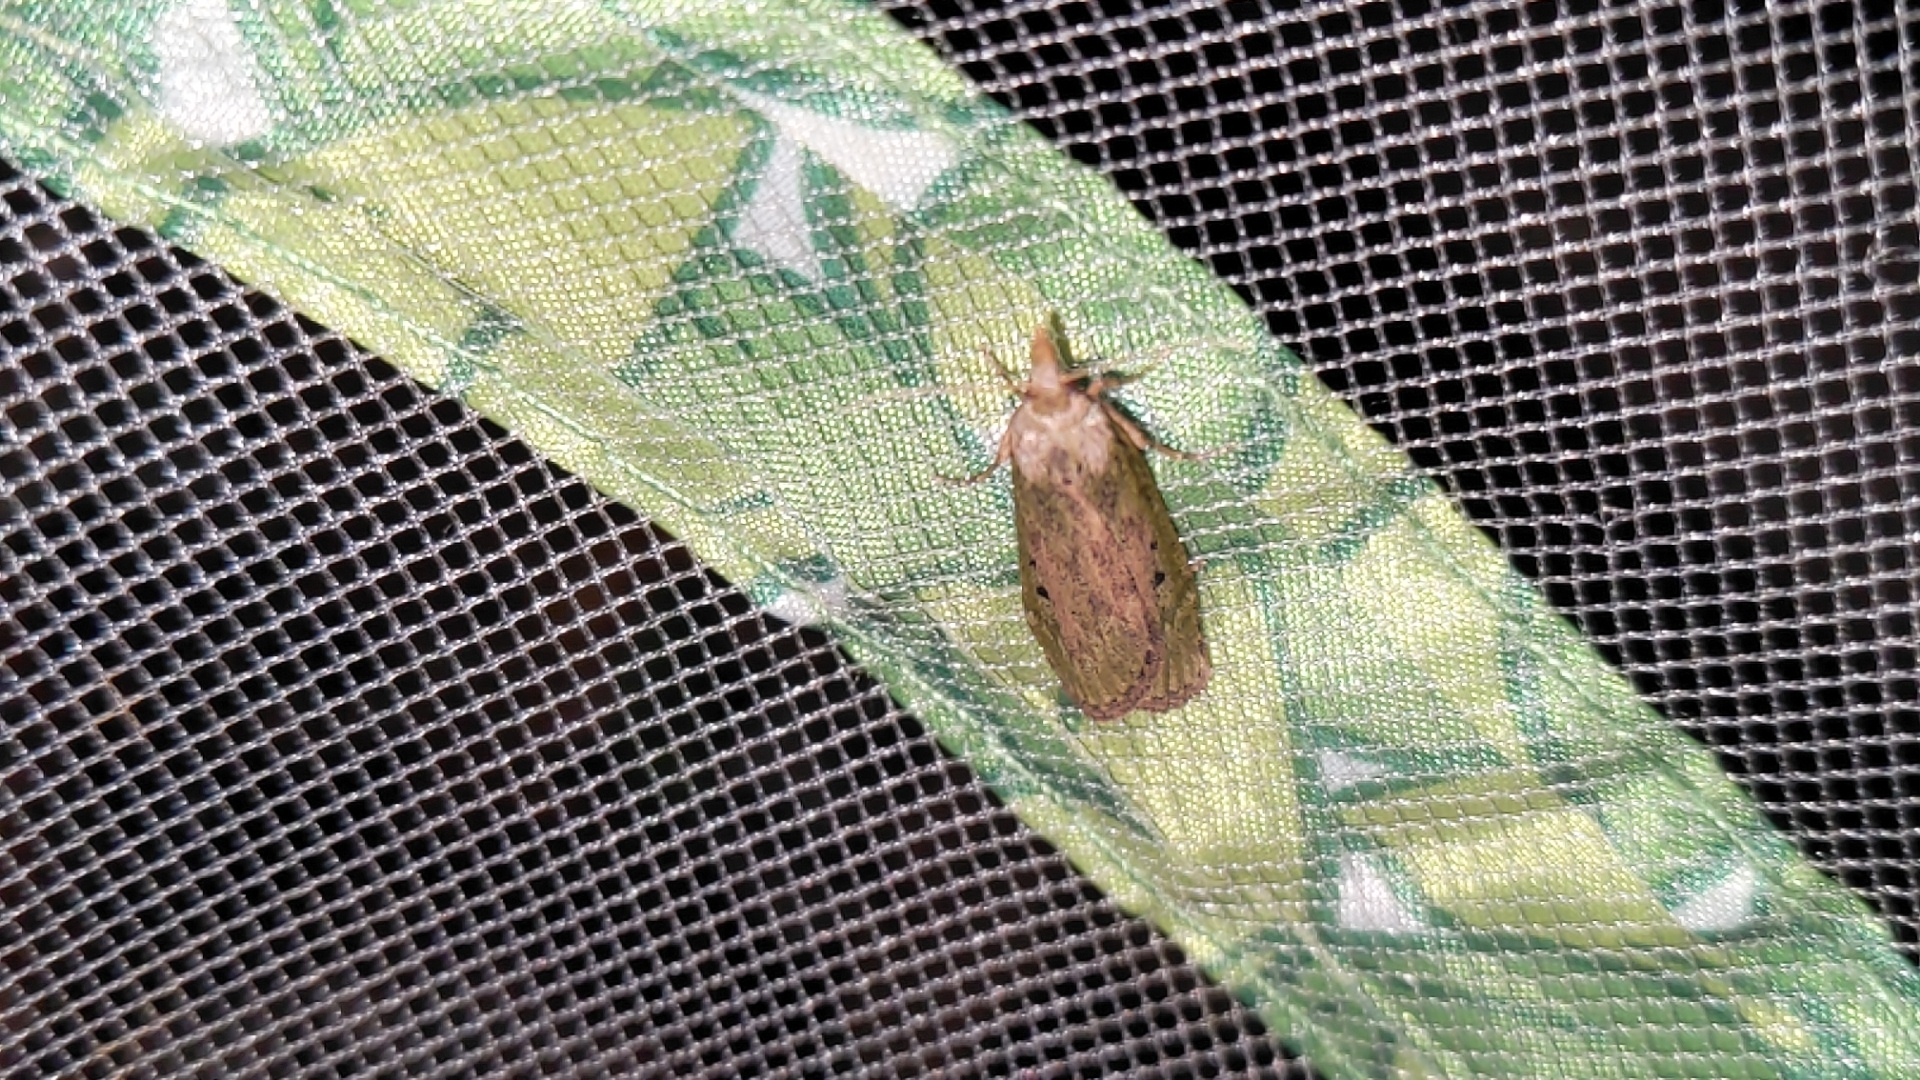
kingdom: Animalia
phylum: Arthropoda
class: Insecta
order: Lepidoptera
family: Pyralidae
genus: Aphomia
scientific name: Aphomia sociella
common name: Bee moth
